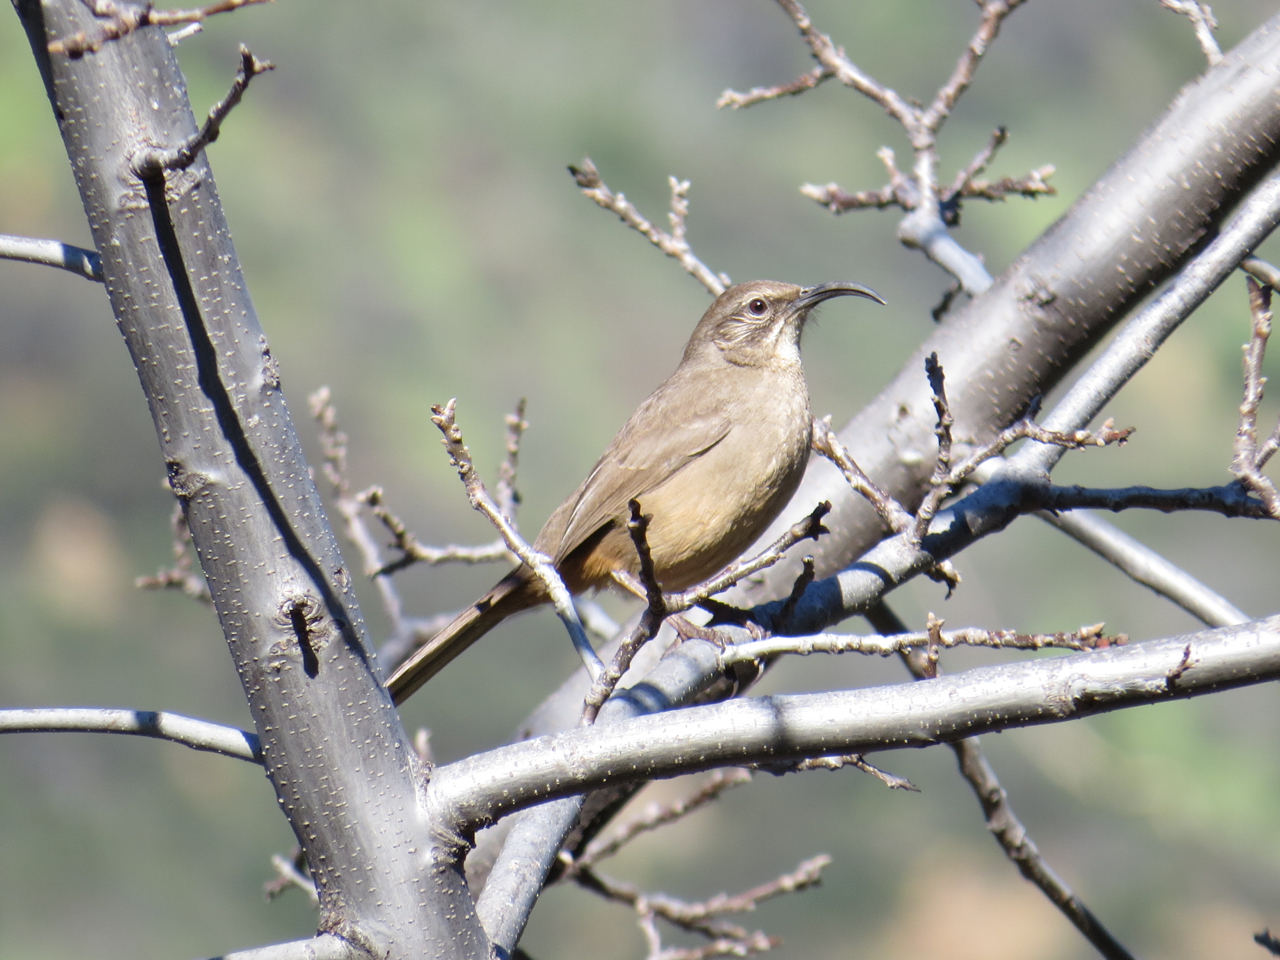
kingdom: Animalia
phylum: Chordata
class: Aves
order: Passeriformes
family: Mimidae
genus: Toxostoma
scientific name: Toxostoma redivivum
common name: California thrasher
